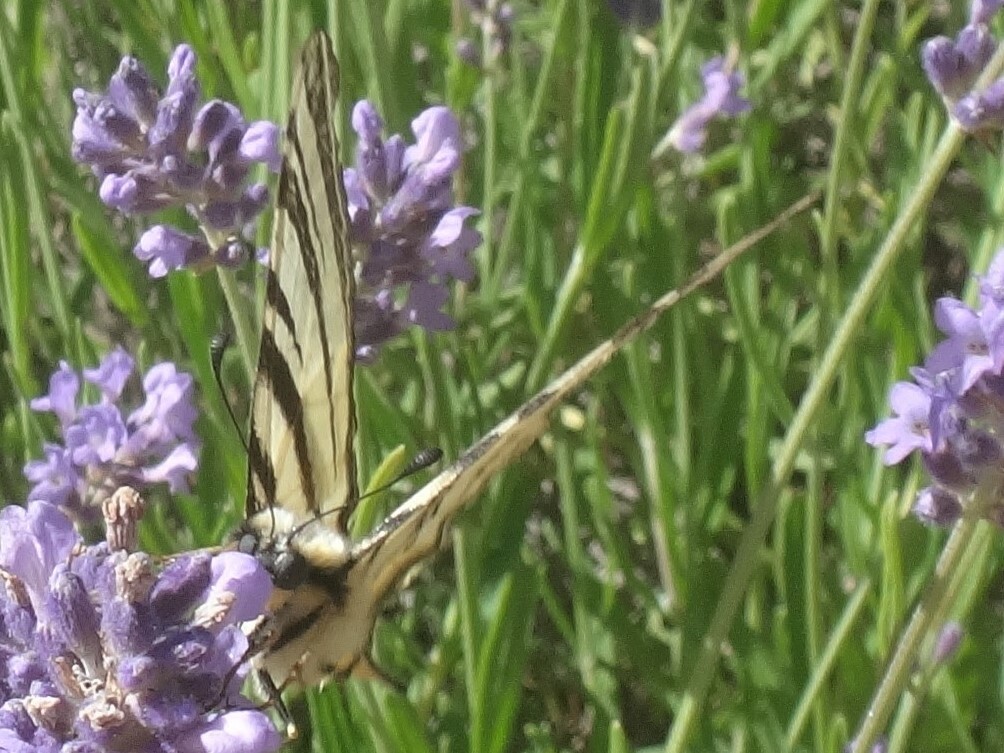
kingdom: Animalia
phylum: Arthropoda
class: Insecta
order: Lepidoptera
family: Papilionidae
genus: Iphiclides
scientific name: Iphiclides podalirius
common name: Scarce swallowtail
